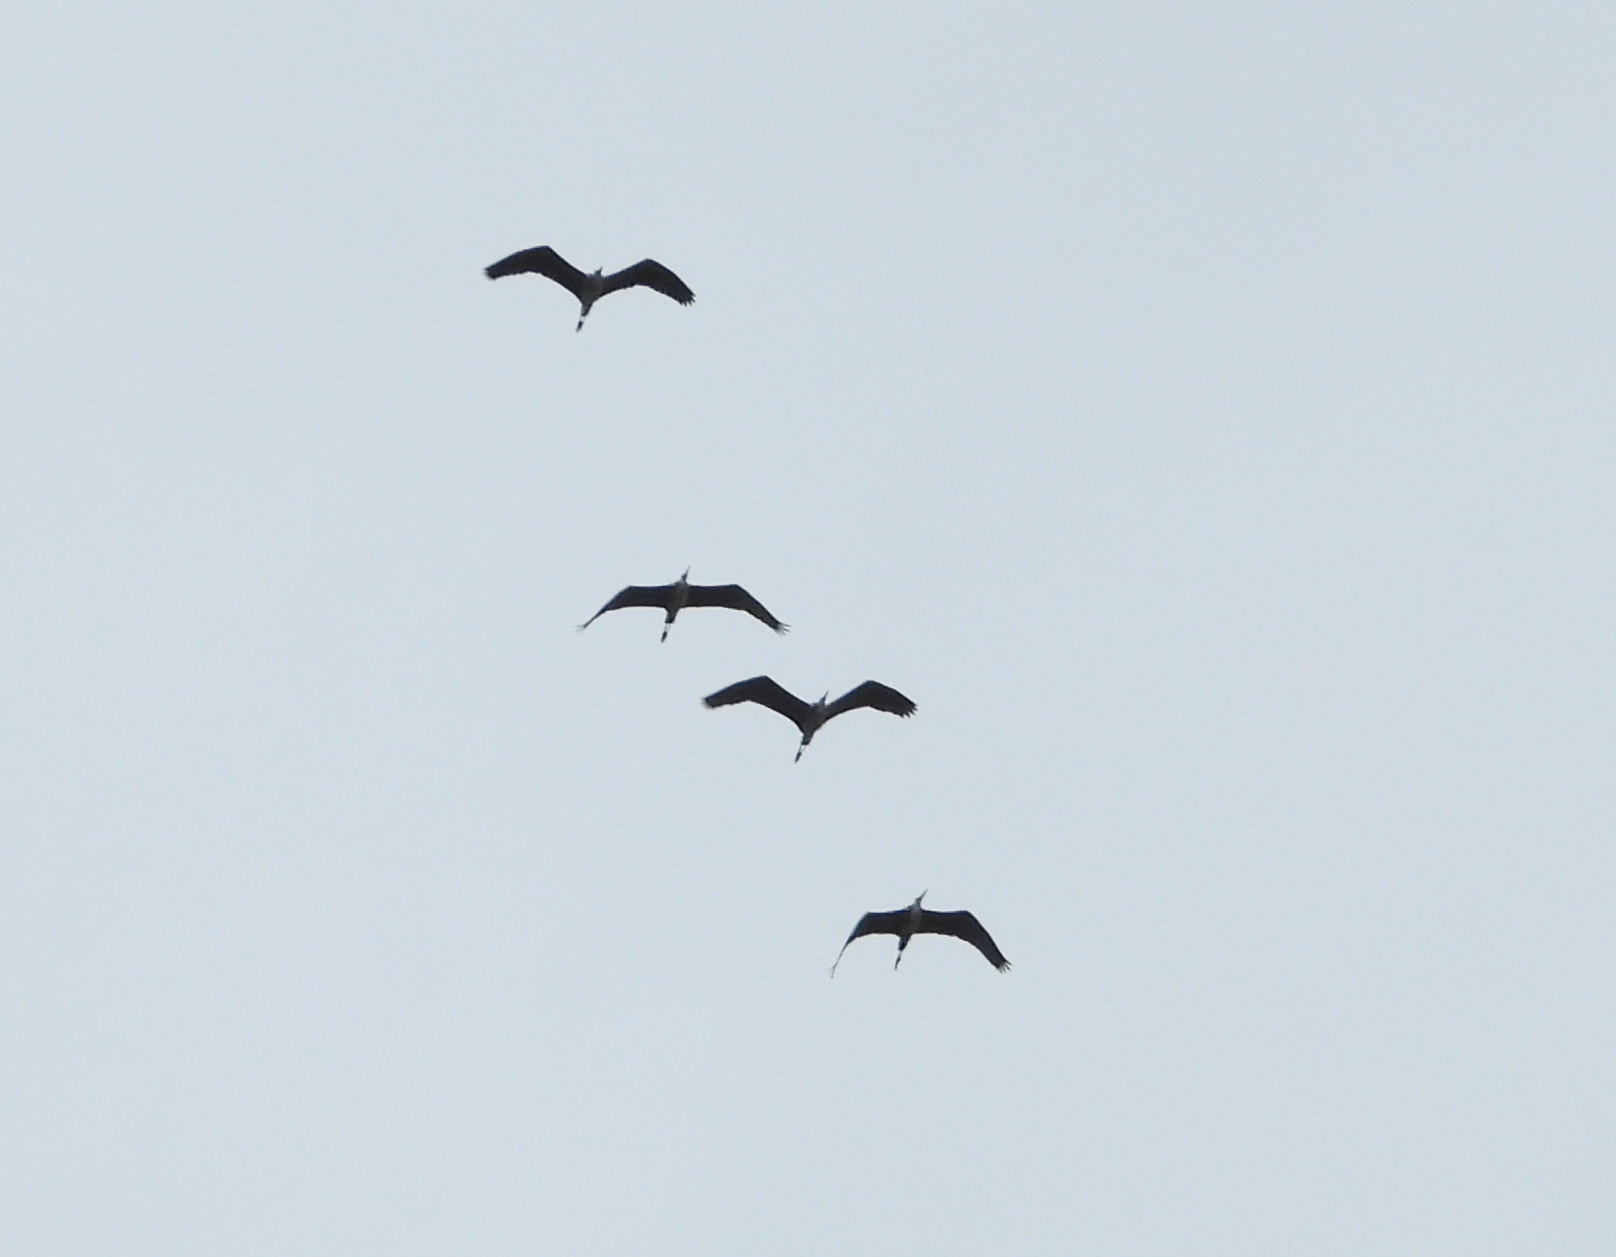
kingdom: Animalia
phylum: Chordata
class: Aves
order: Pelecaniformes
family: Ardeidae
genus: Ardea
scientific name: Ardea cinerea
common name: Grey heron
